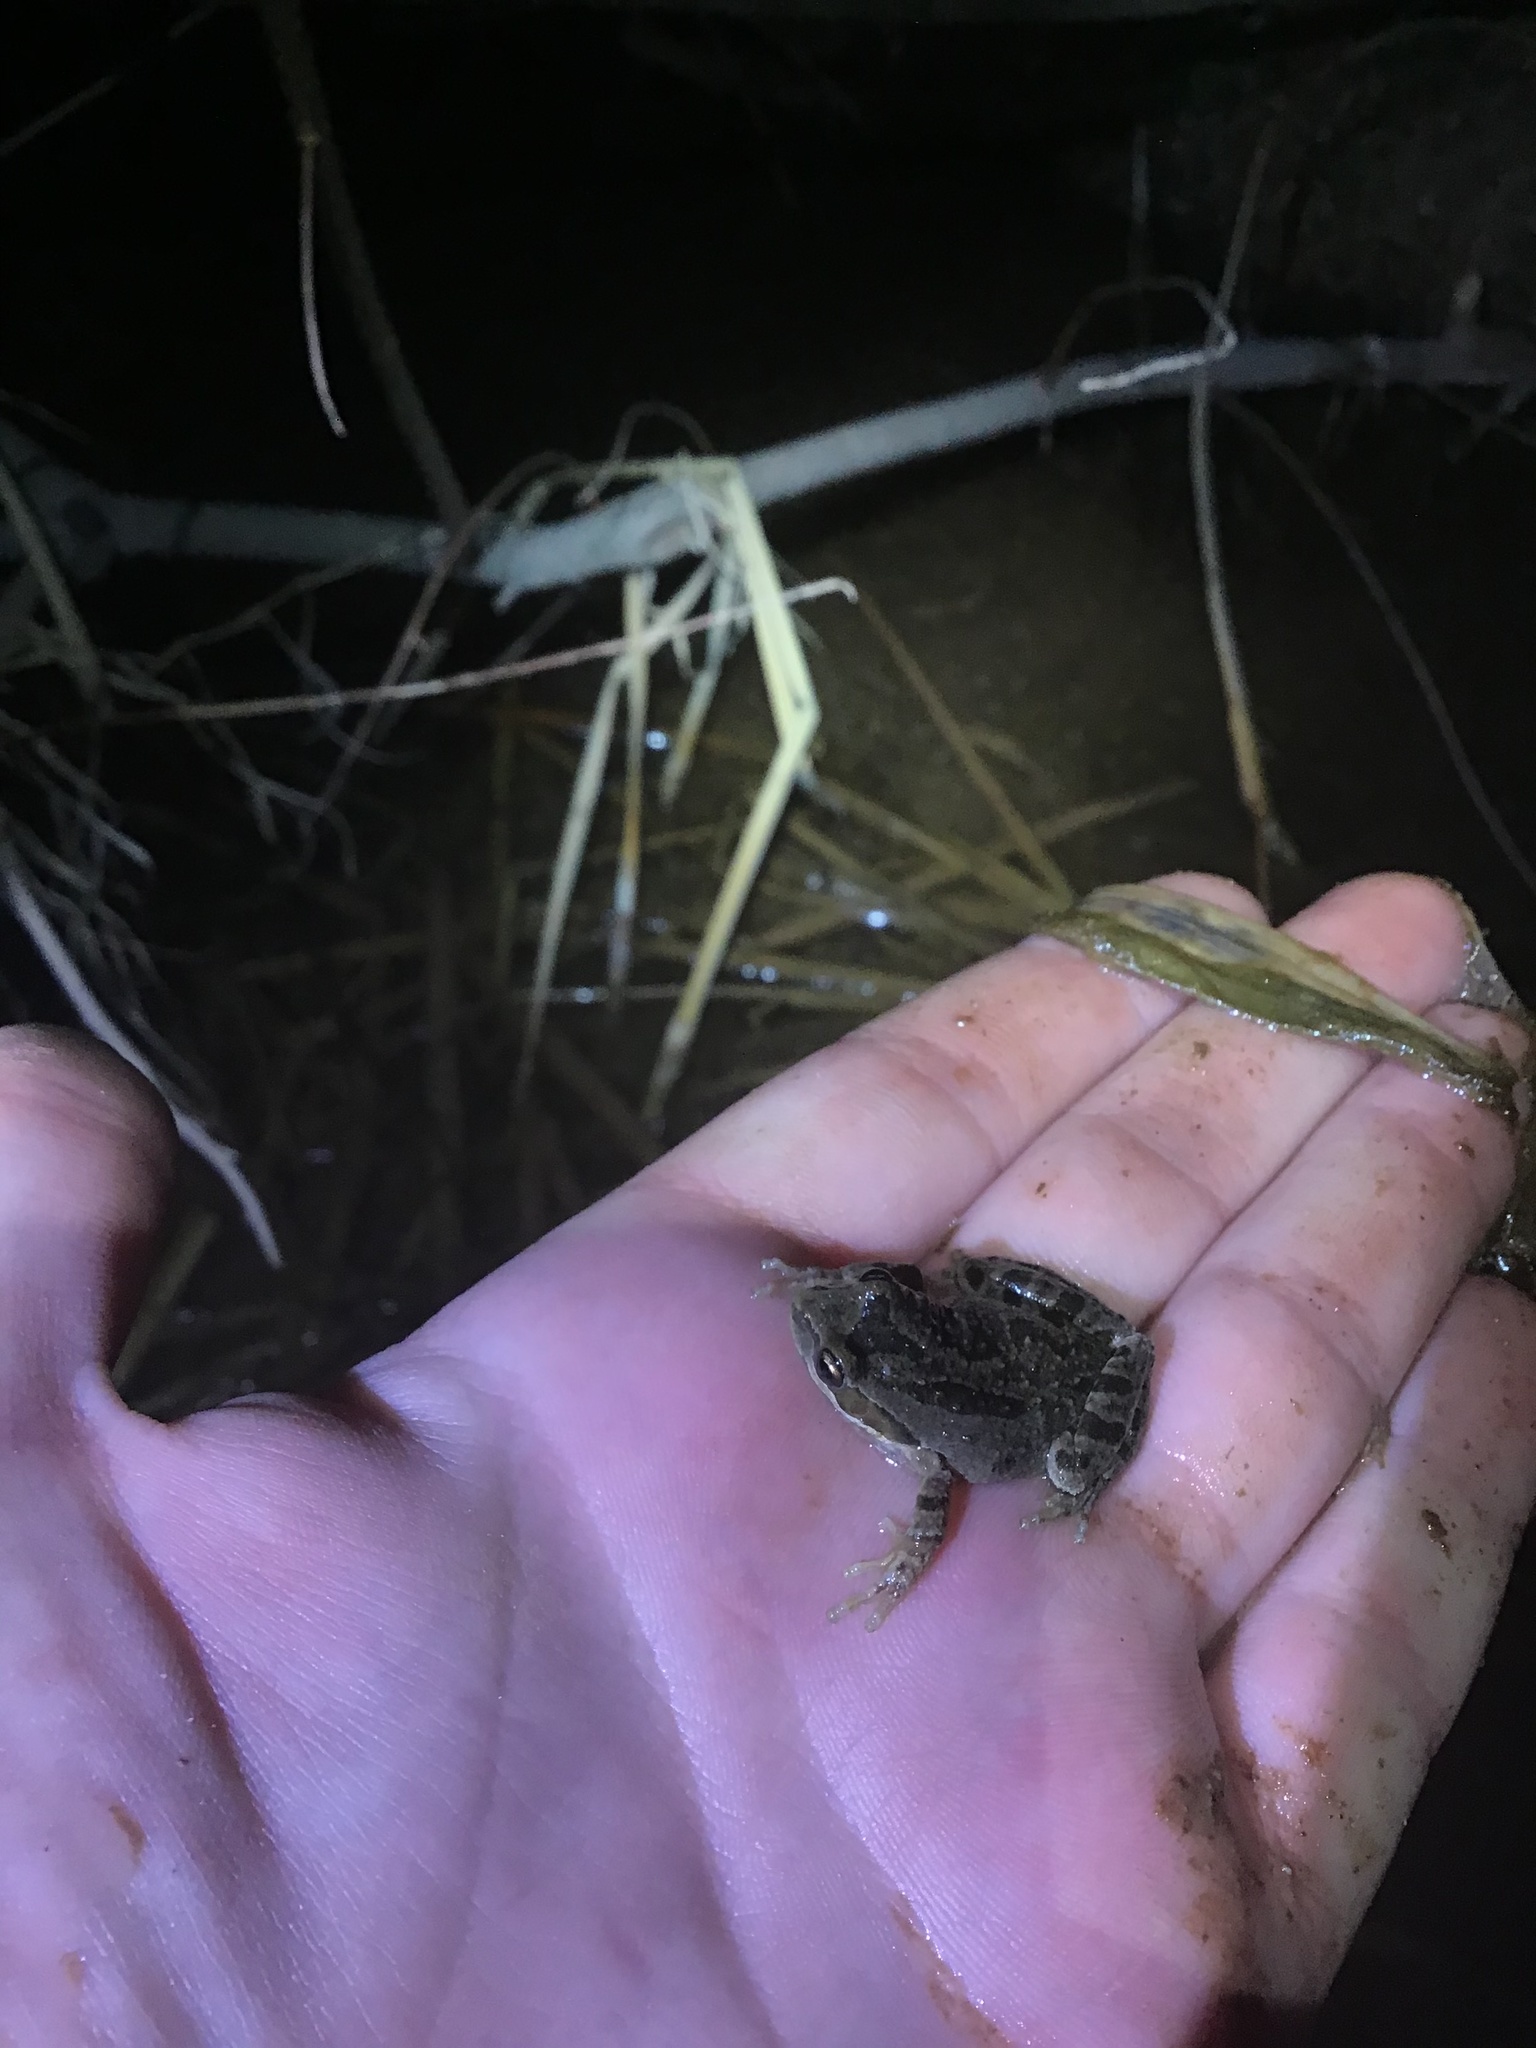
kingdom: Animalia
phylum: Chordata
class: Amphibia
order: Anura
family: Hylidae
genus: Pseudacris
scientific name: Pseudacris regilla
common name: Pacific chorus frog
